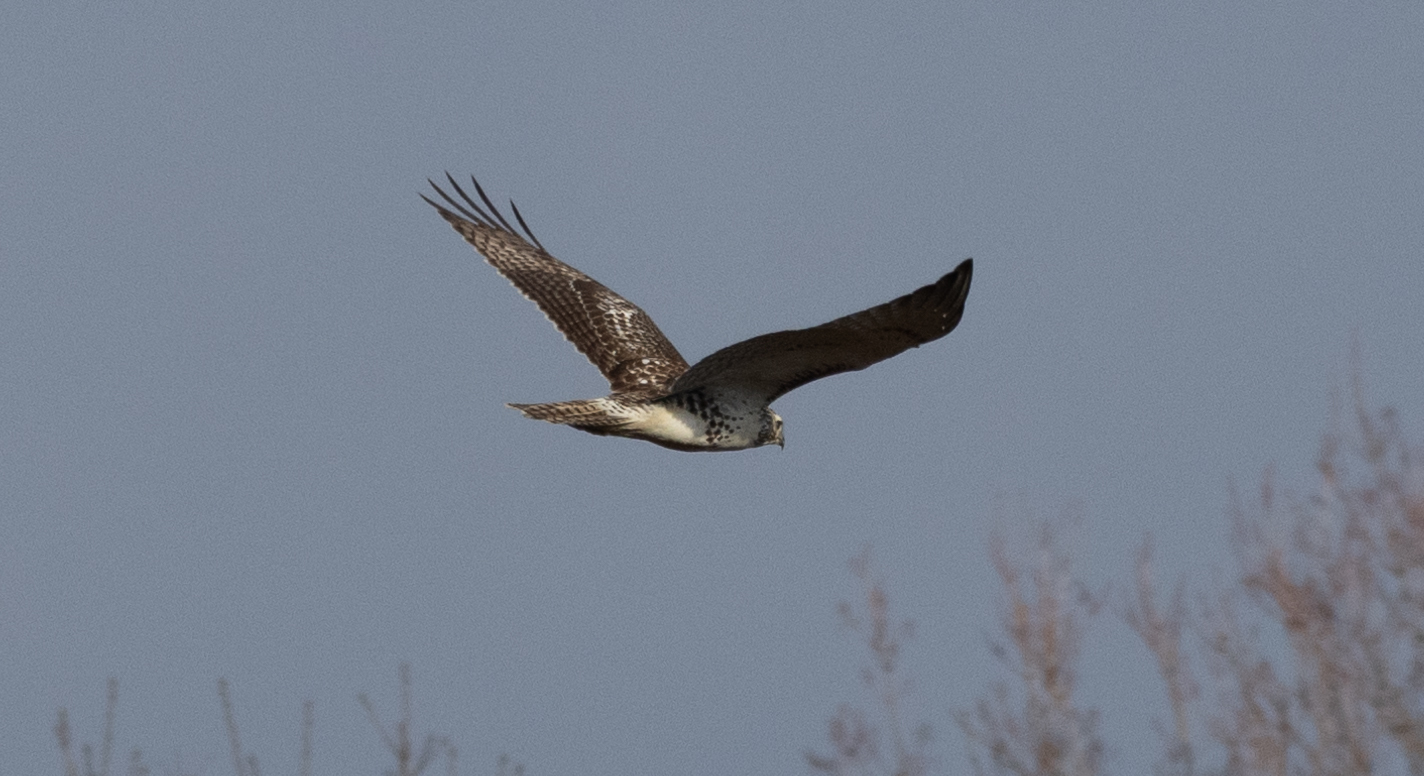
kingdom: Animalia
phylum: Chordata
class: Aves
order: Accipitriformes
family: Accipitridae
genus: Buteo
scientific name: Buteo jamaicensis
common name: Red-tailed hawk
